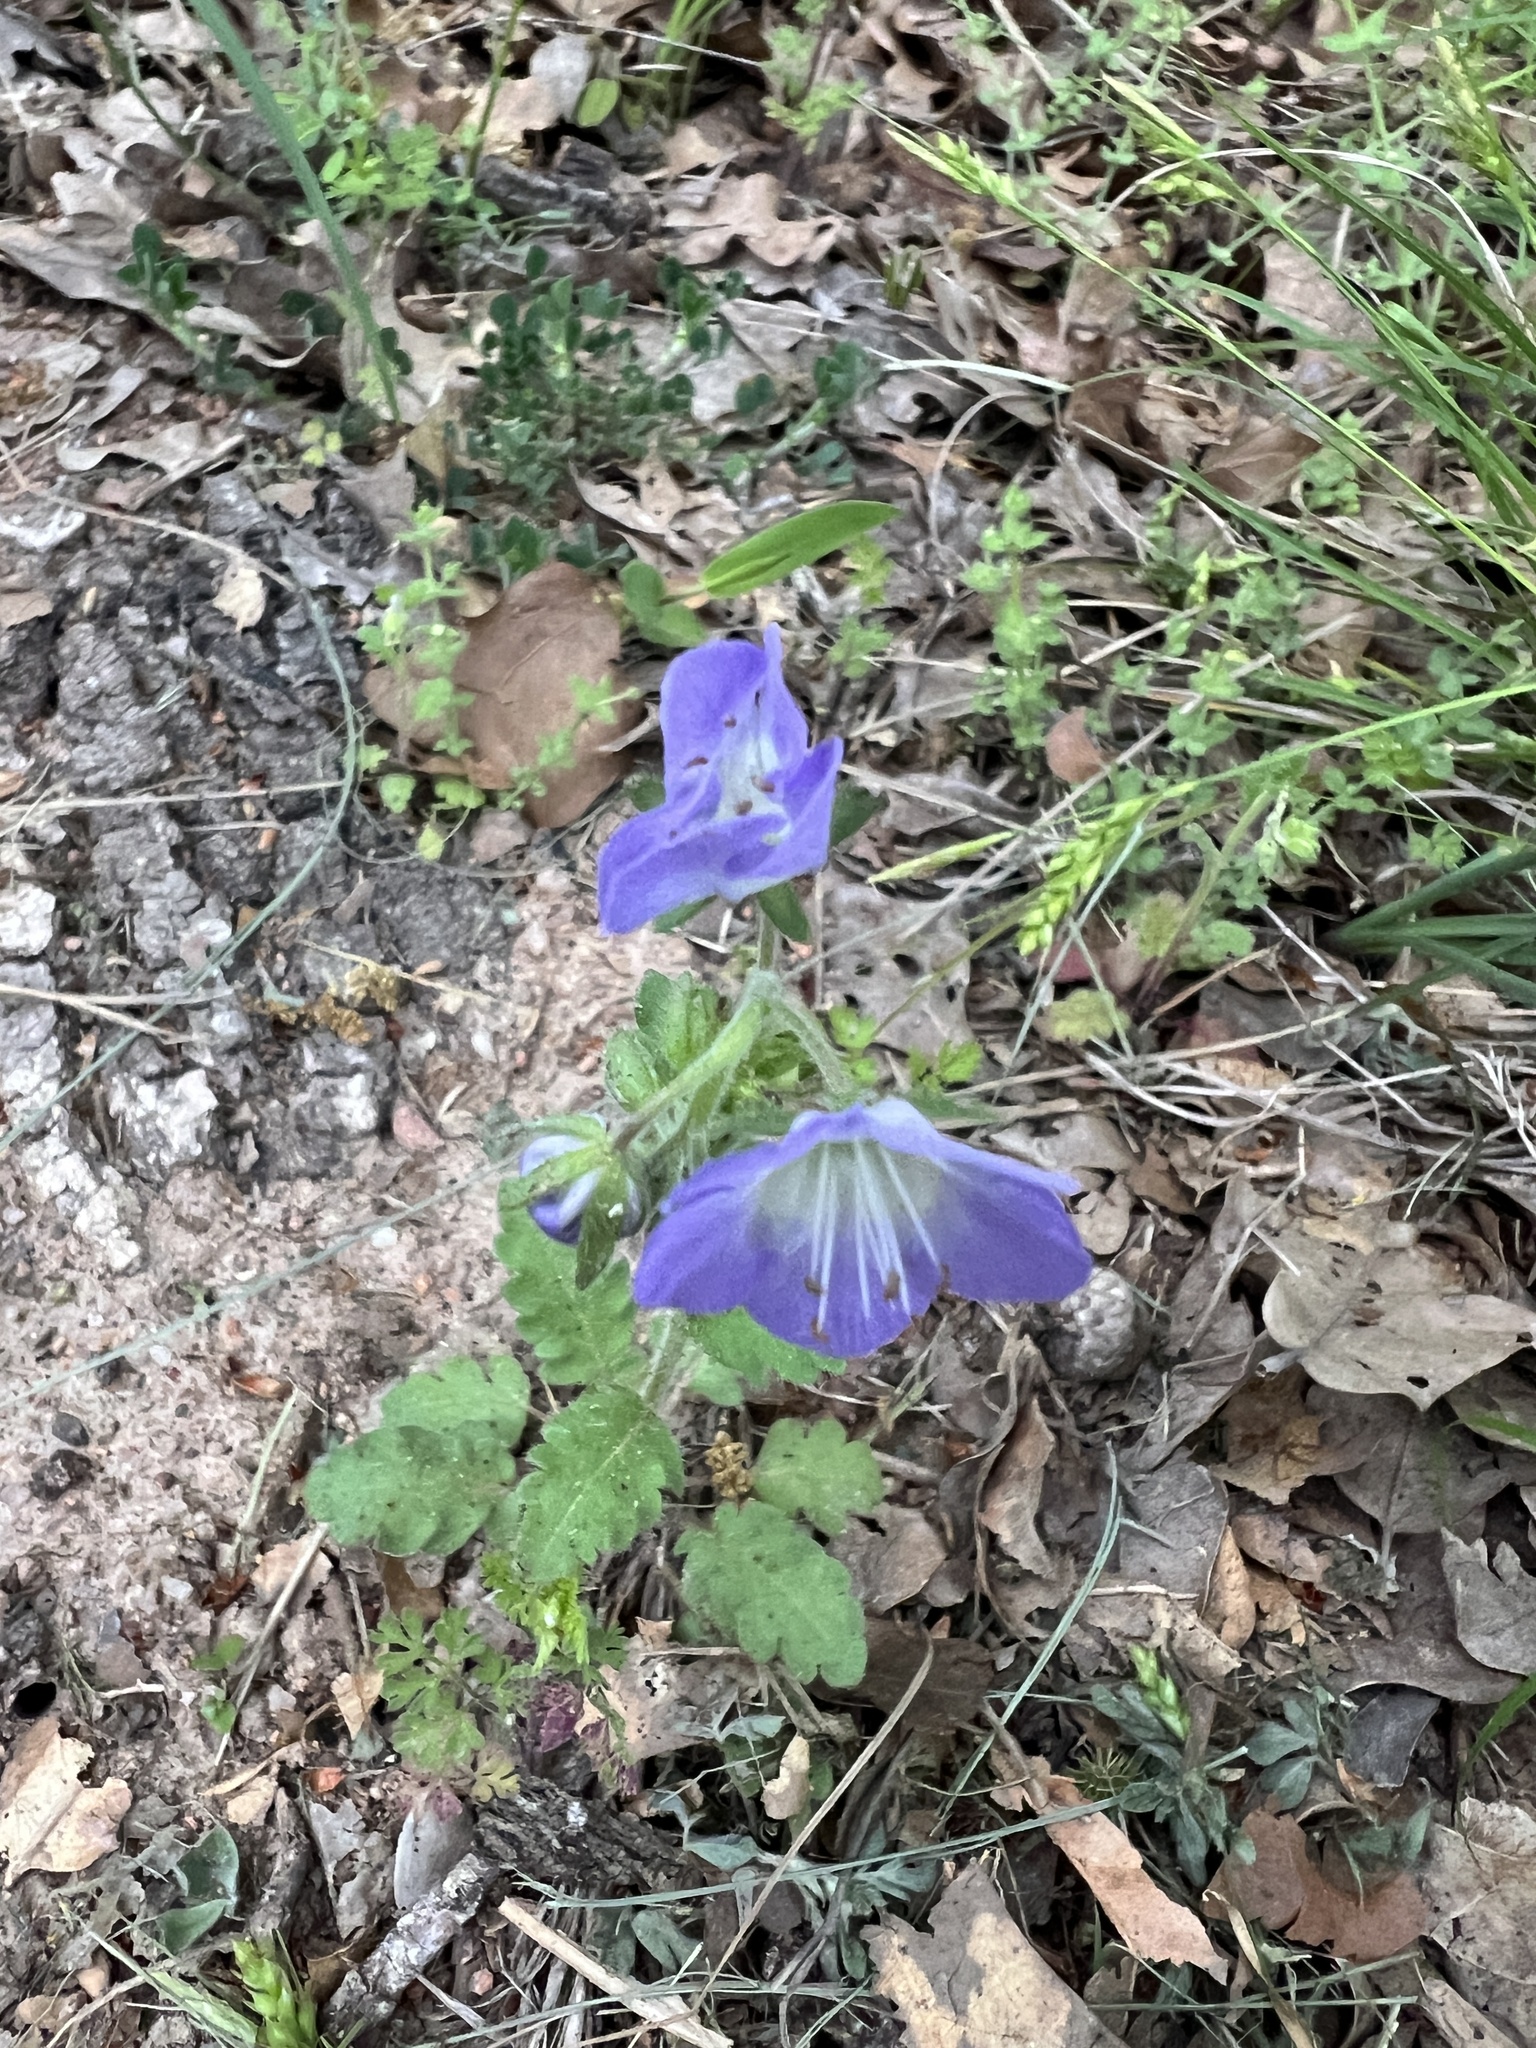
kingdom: Plantae
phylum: Tracheophyta
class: Magnoliopsida
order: Boraginales
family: Hydrophyllaceae
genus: Phacelia
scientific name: Phacelia patuliflora
